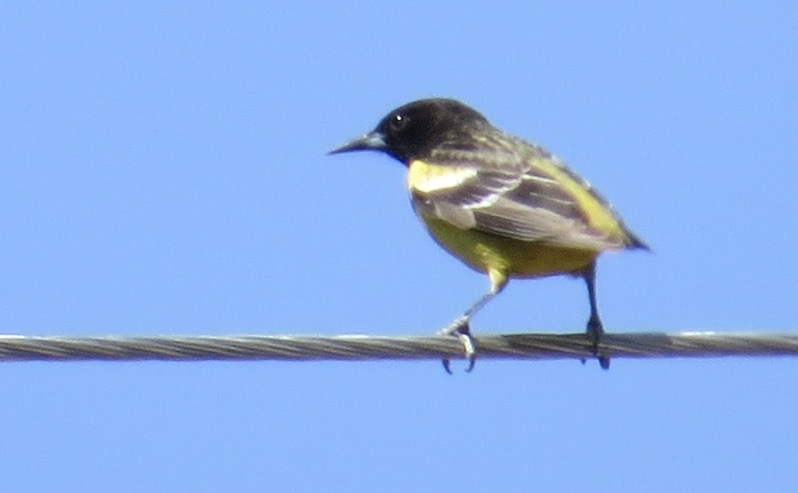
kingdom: Animalia
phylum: Chordata
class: Aves
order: Passeriformes
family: Icteridae
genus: Icterus
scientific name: Icterus parisorum
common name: Scott's oriole
